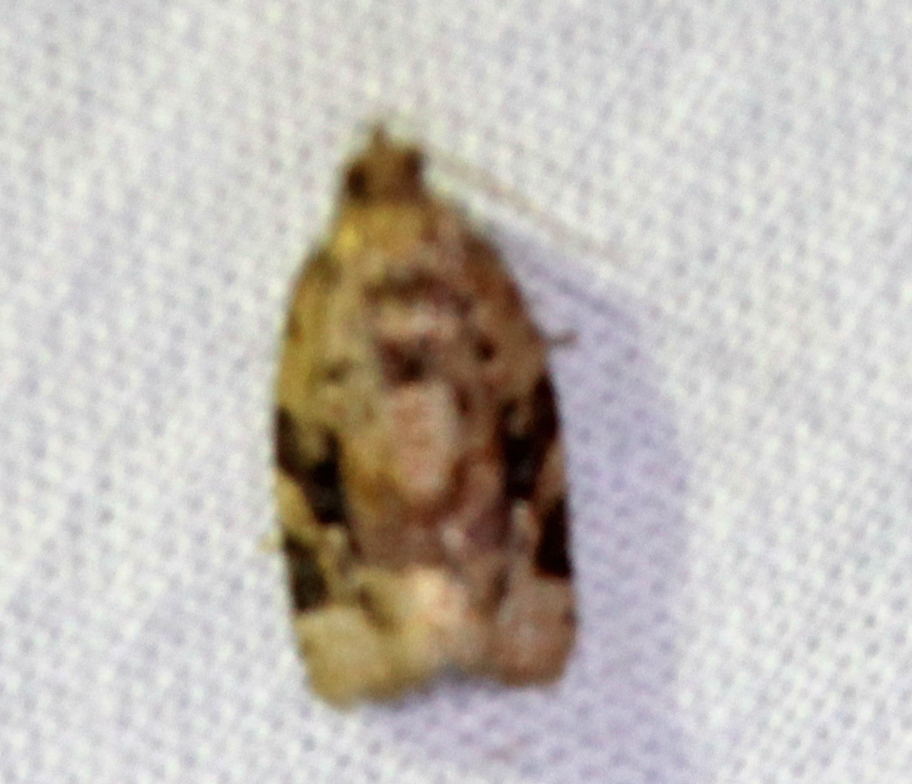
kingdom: Animalia
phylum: Arthropoda
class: Insecta
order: Lepidoptera
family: Tortricidae
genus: Argyrotaenia
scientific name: Argyrotaenia velutinana
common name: Red-banded leafroller moth
